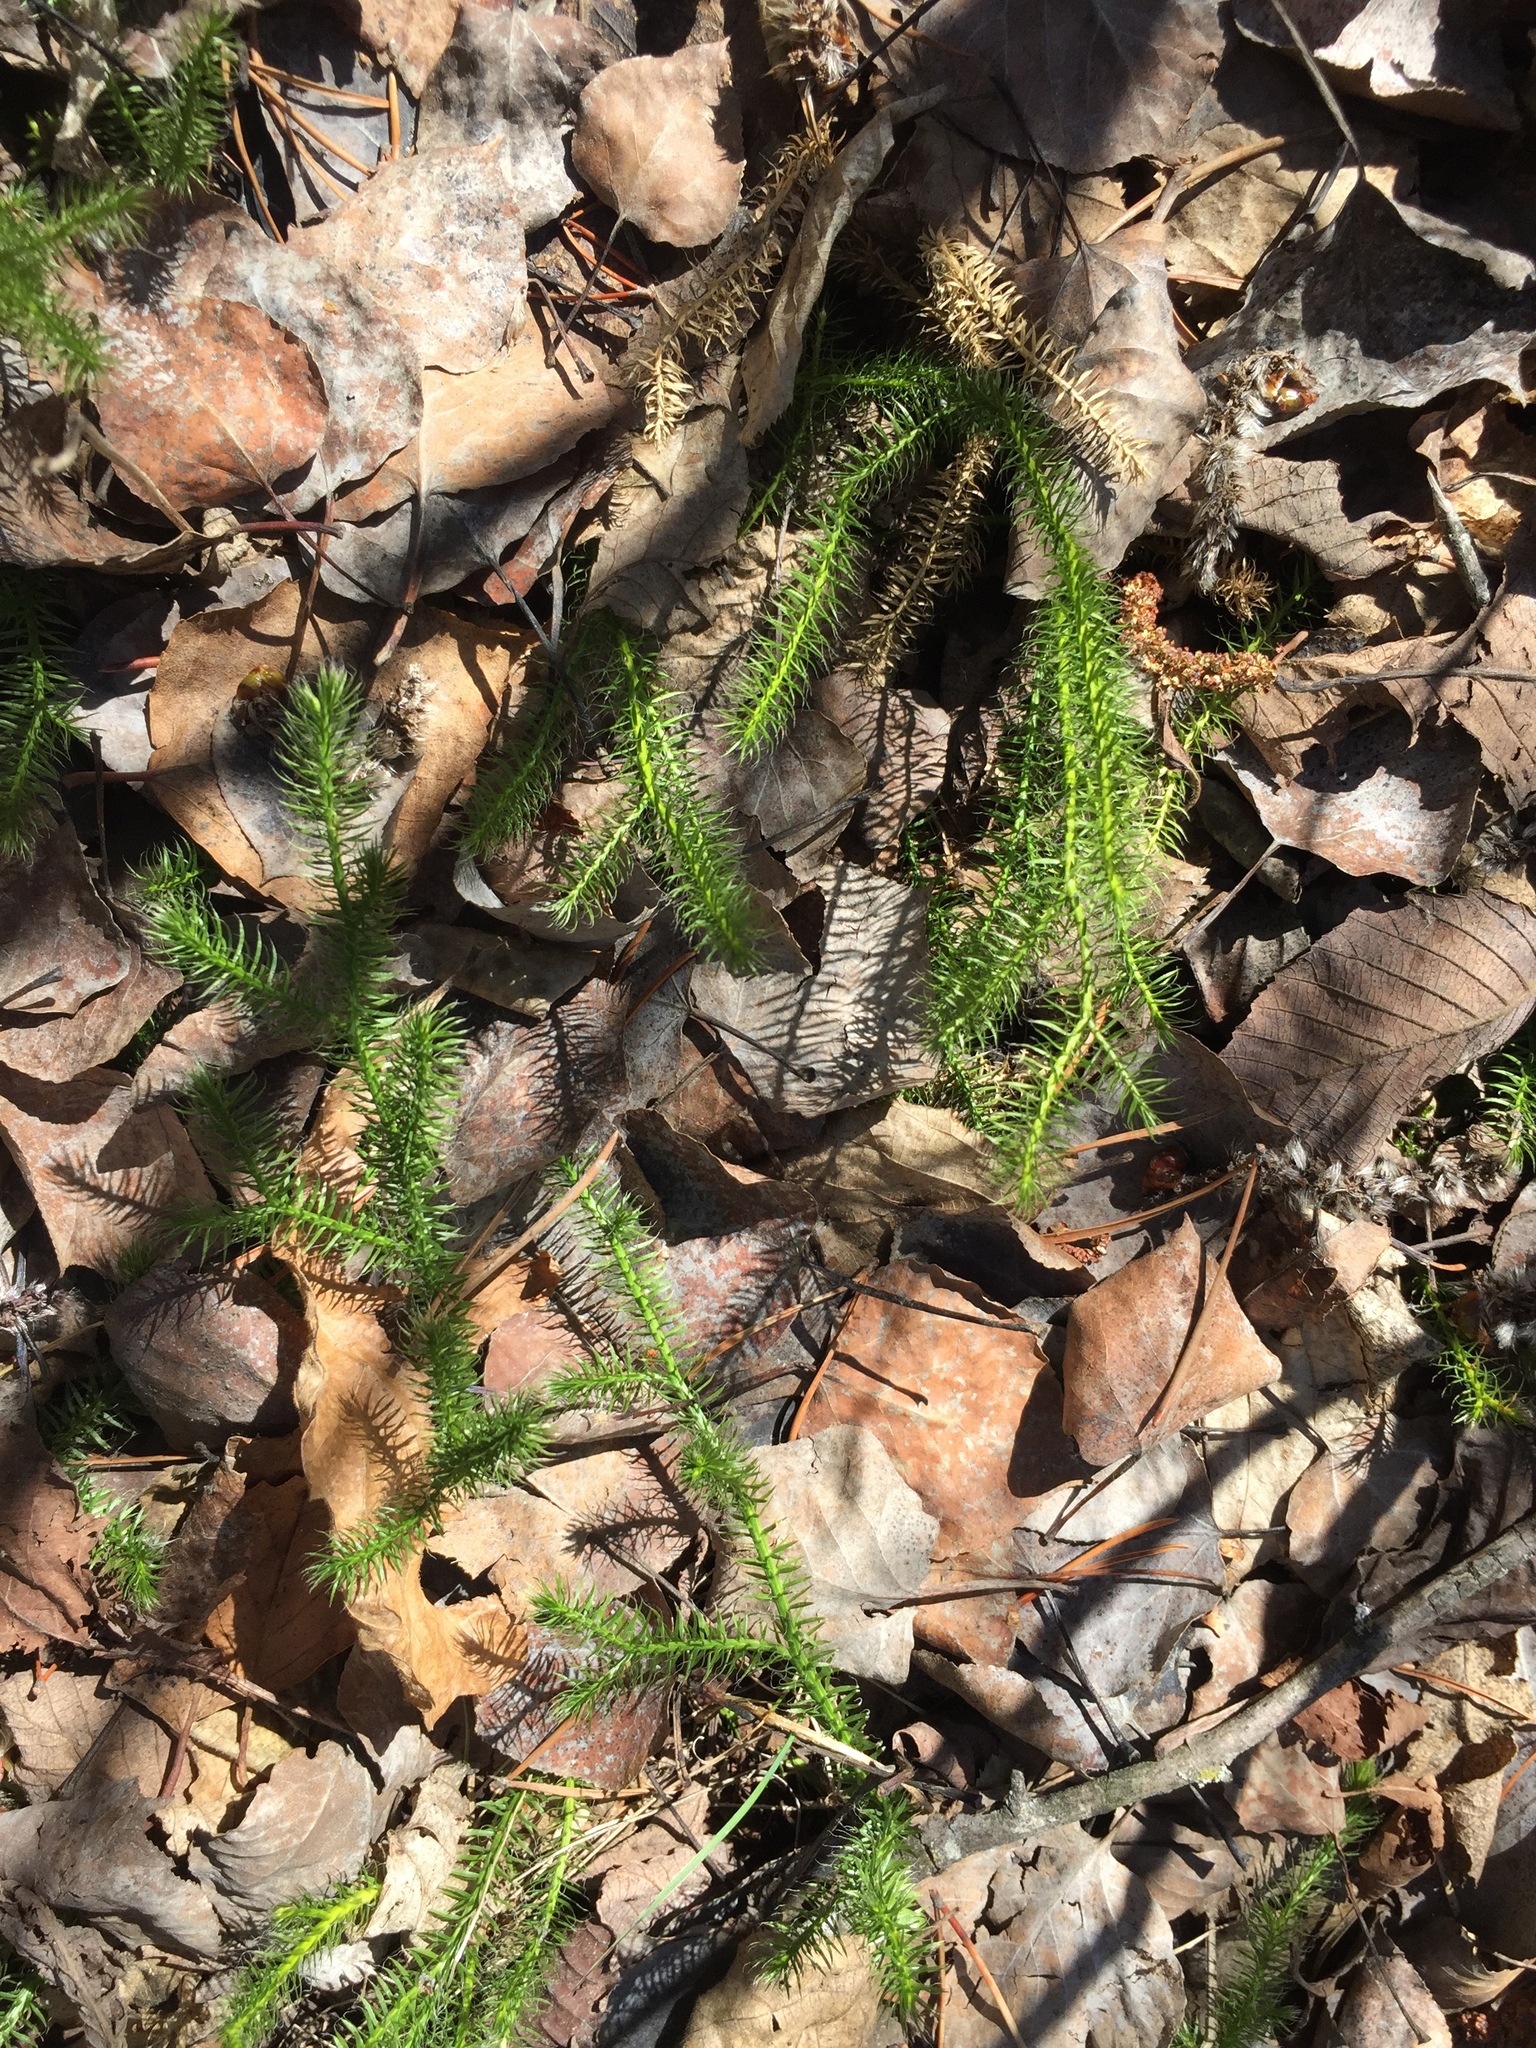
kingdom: Plantae
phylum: Tracheophyta
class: Lycopodiopsida
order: Lycopodiales
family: Lycopodiaceae
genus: Lycopodium
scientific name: Lycopodium clavatum
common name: Stag's-horn clubmoss
